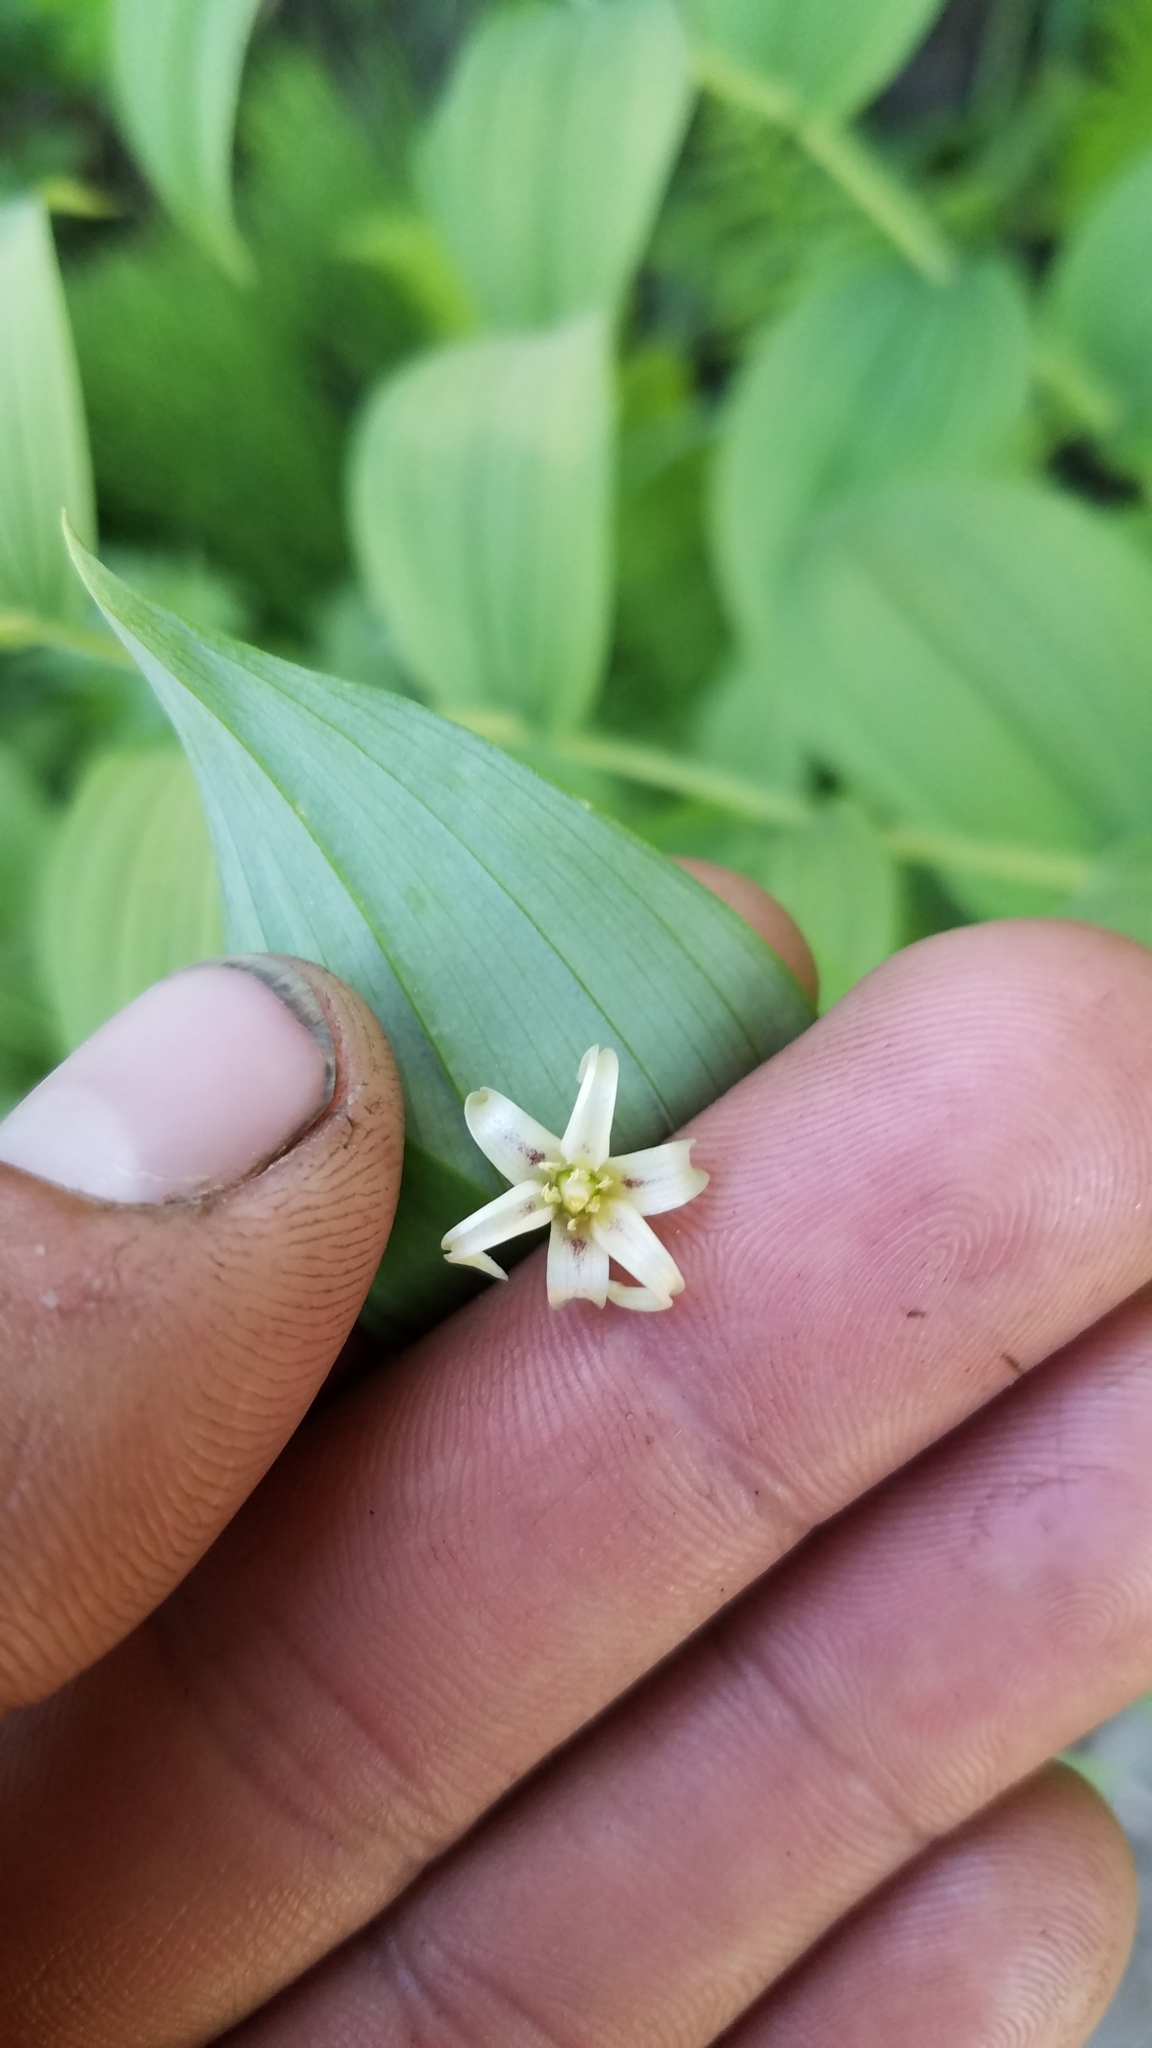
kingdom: Plantae
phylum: Tracheophyta
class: Liliopsida
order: Liliales
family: Liliaceae
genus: Streptopus
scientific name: Streptopus amplexifolius
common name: Clasp twisted stalk
